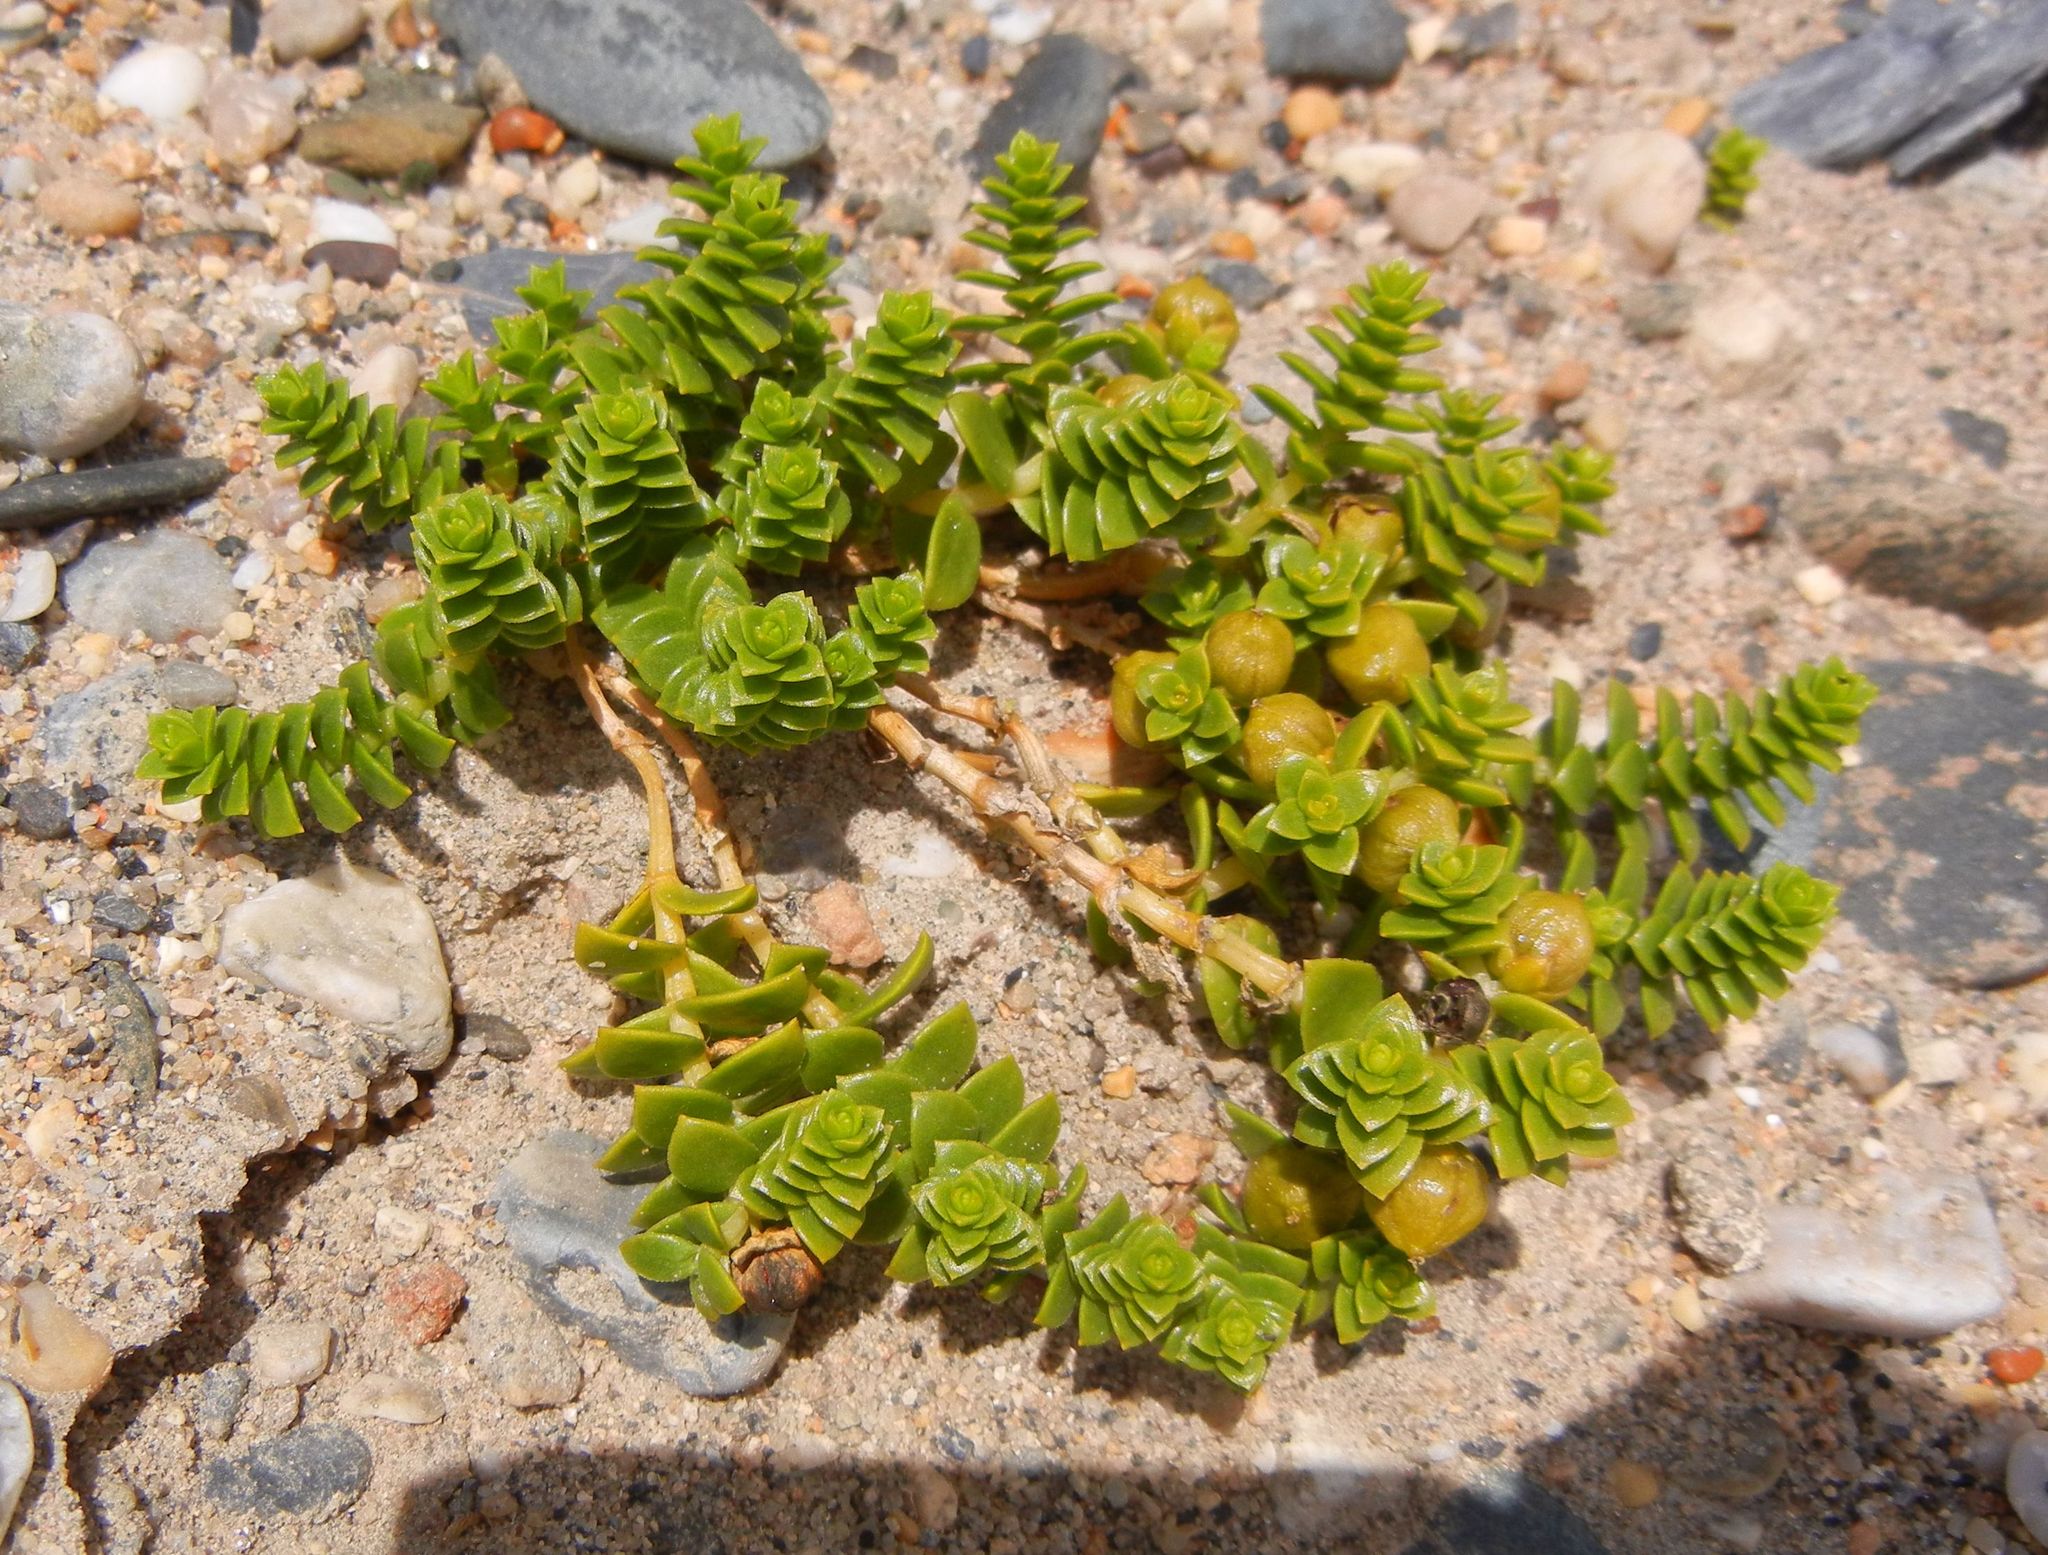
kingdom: Plantae
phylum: Tracheophyta
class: Magnoliopsida
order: Caryophyllales
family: Caryophyllaceae
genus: Honckenya
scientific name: Honckenya peploides
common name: Sea sandwort
